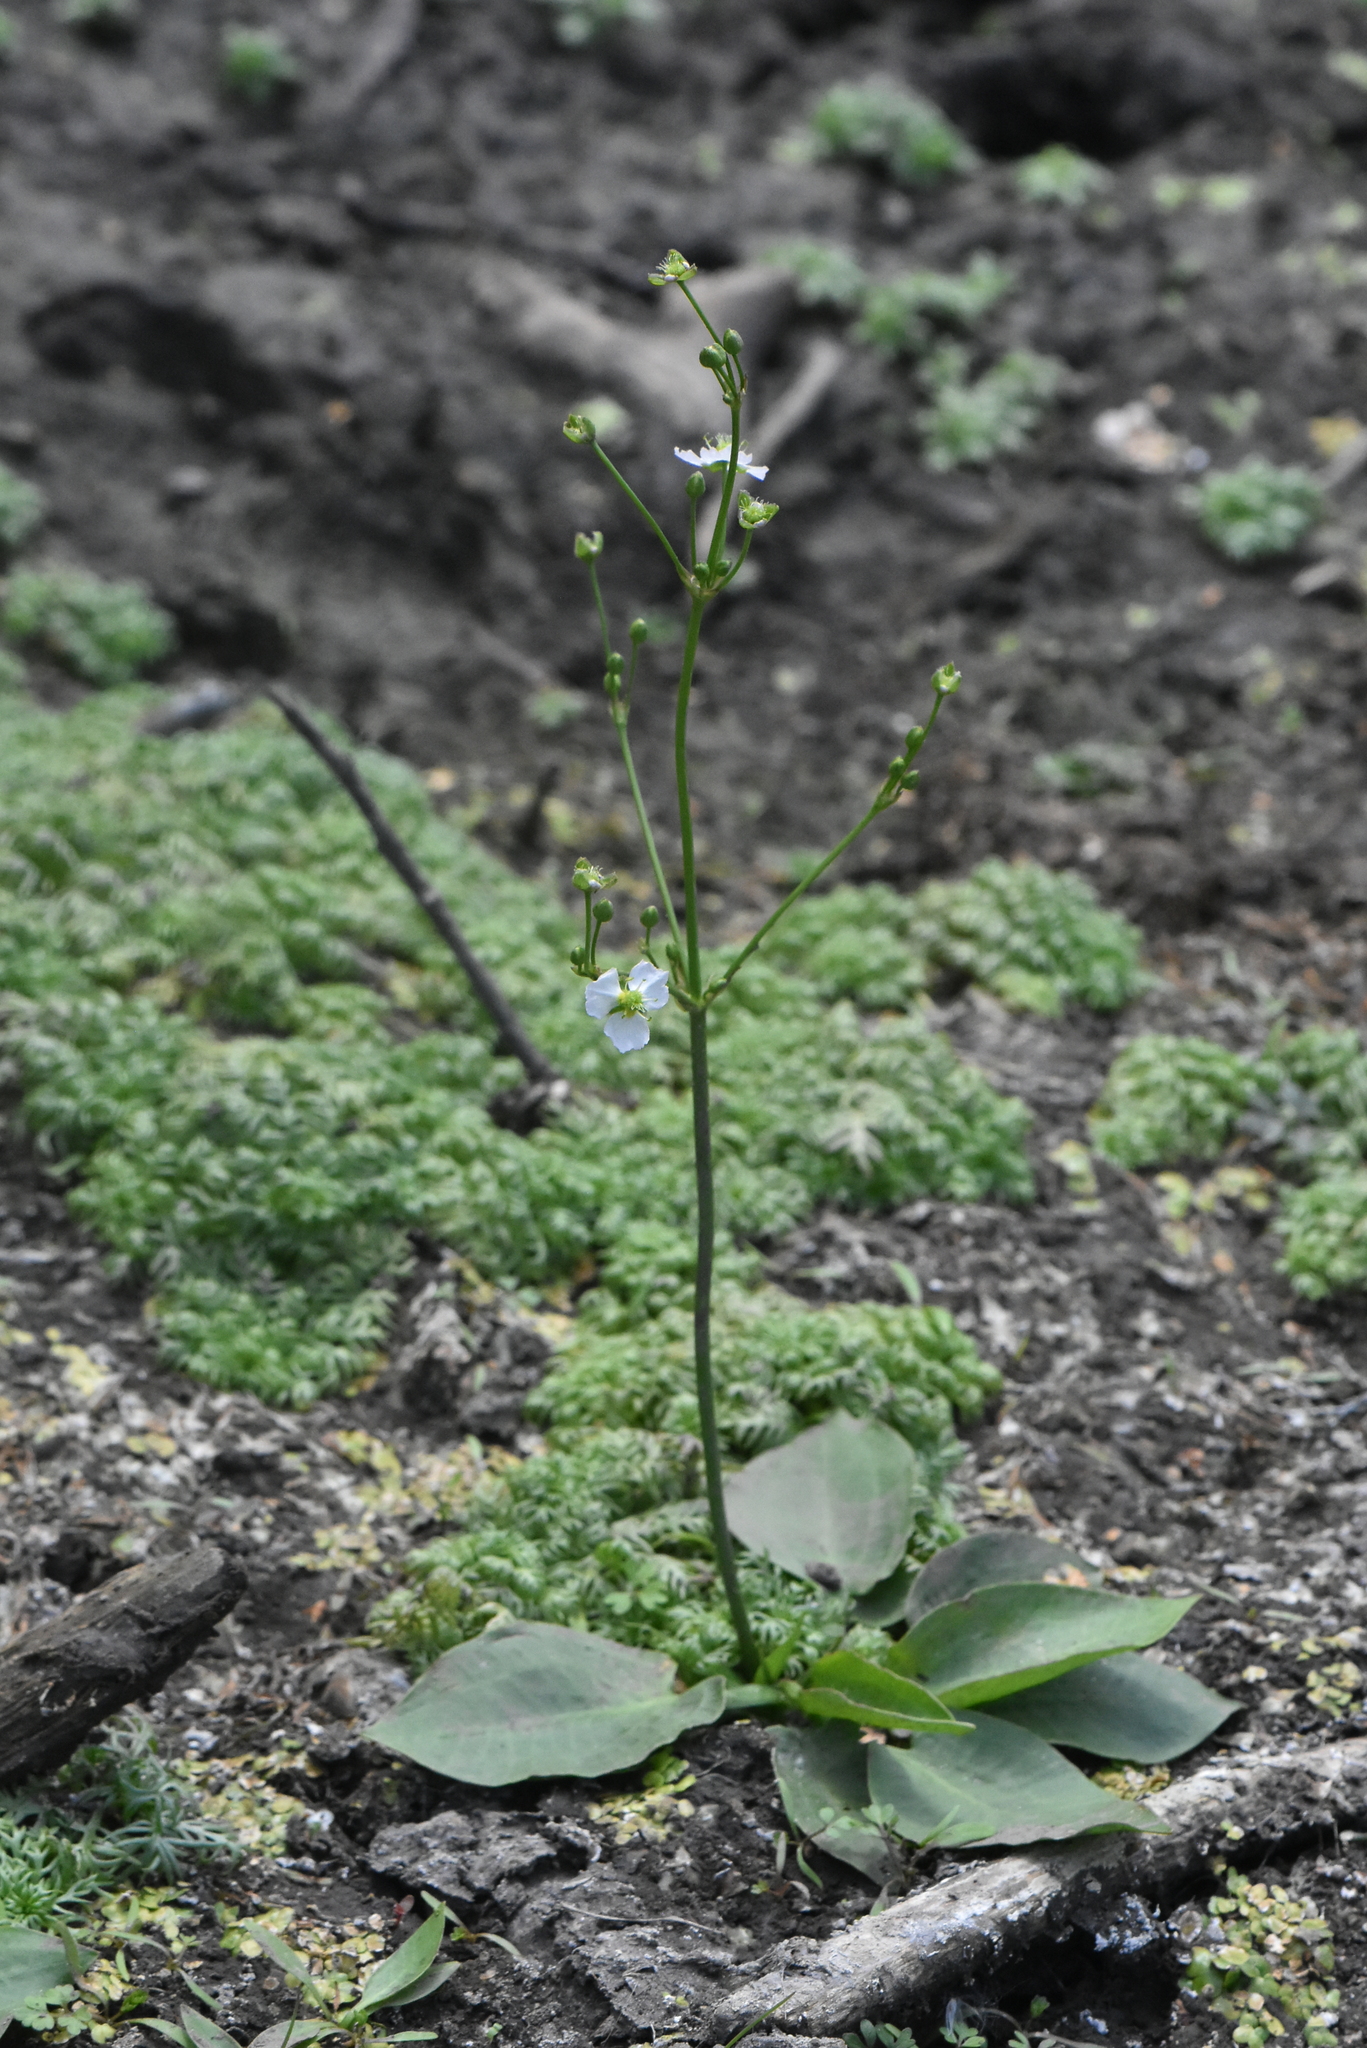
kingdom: Plantae
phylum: Tracheophyta
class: Liliopsida
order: Alismatales
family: Alismataceae
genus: Alisma
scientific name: Alisma plantago-aquatica
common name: Water-plantain
